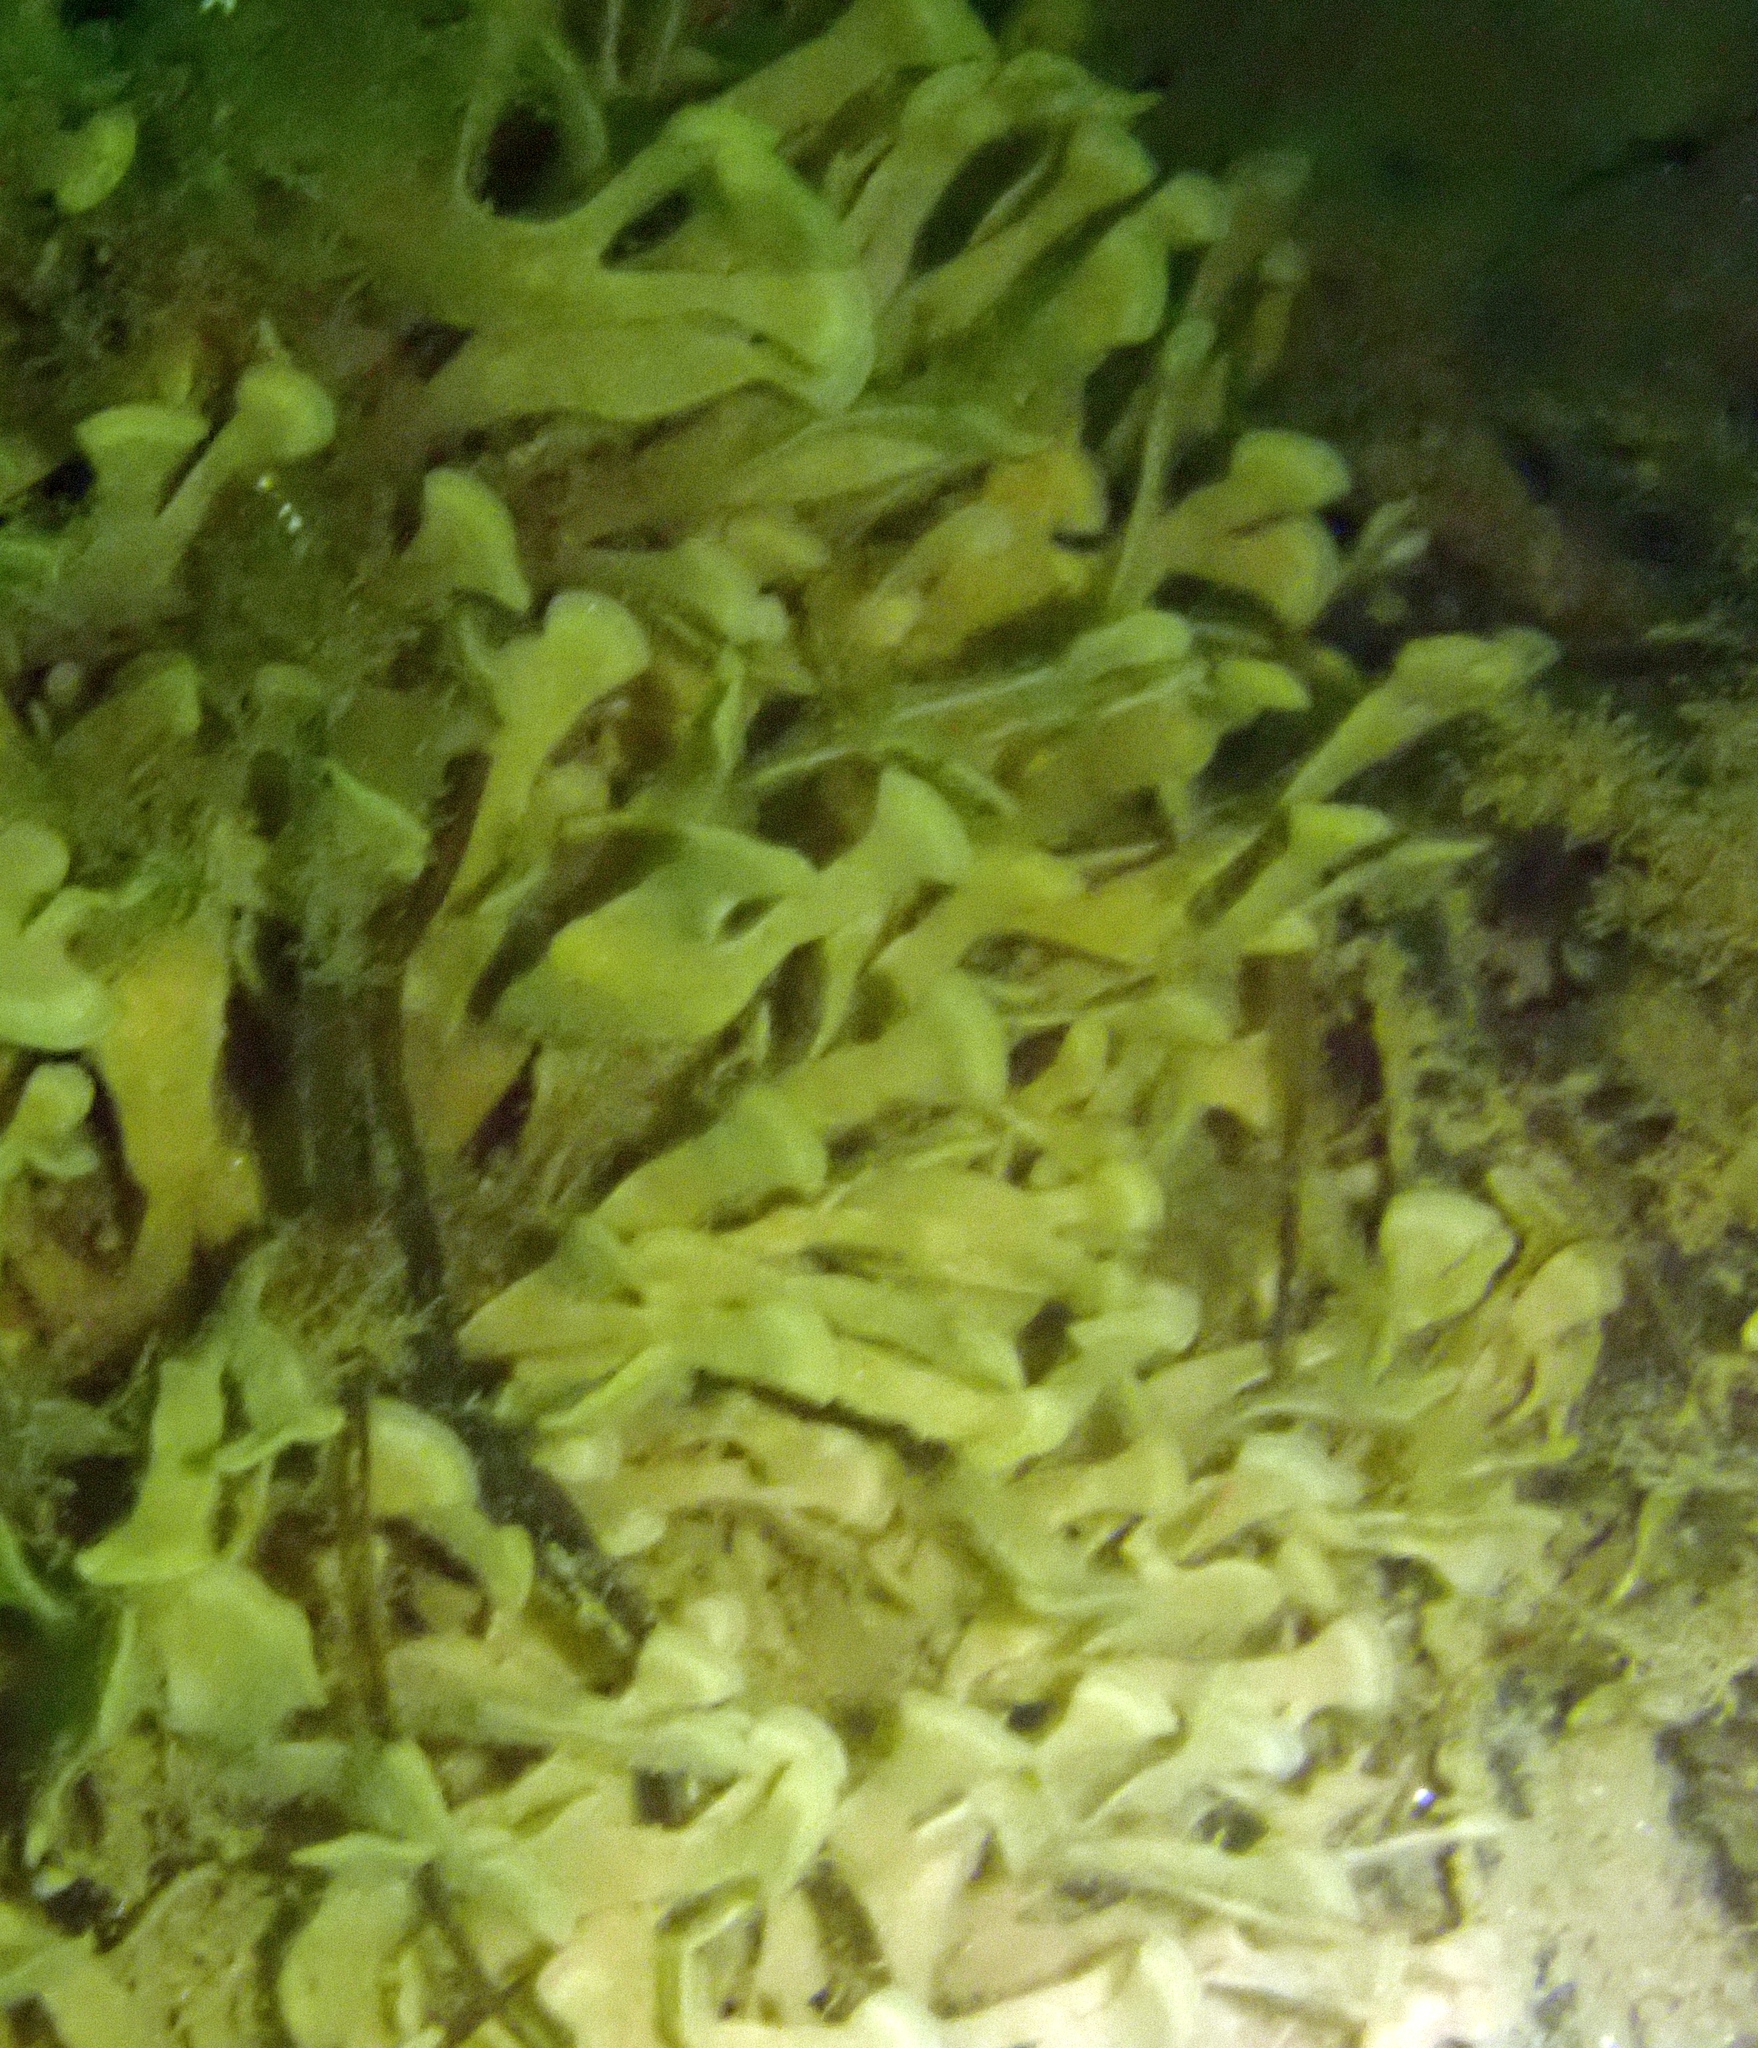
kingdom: Animalia
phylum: Bryozoa
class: Gymnolaemata
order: Cheilostomatida
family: Flustridae
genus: Flustra
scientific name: Flustra foliacea
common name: Hornwrack
